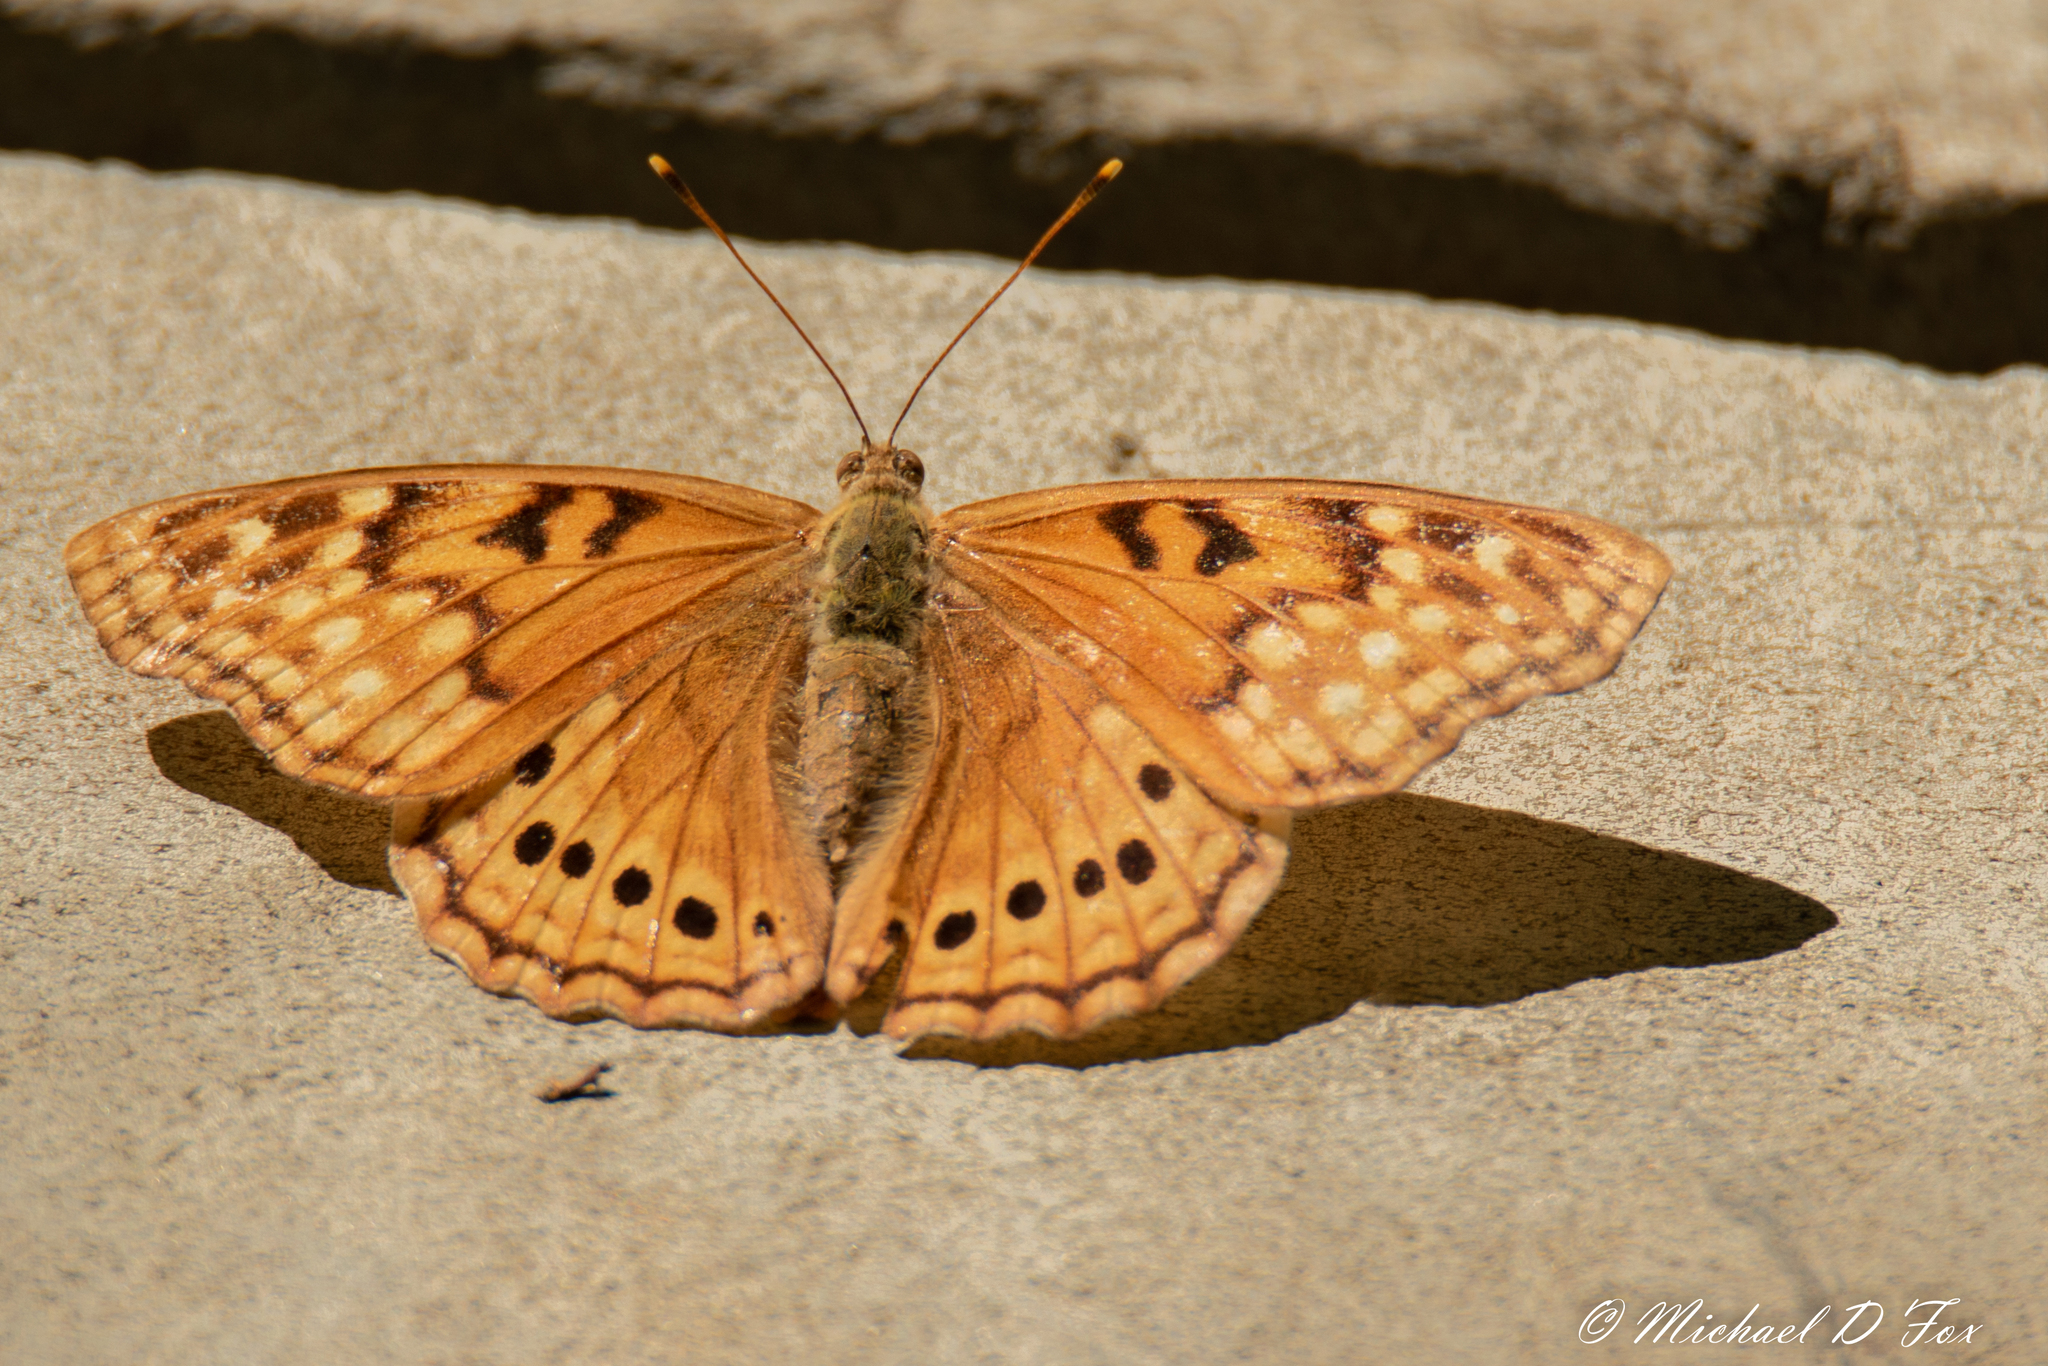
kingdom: Animalia
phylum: Arthropoda
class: Insecta
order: Lepidoptera
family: Nymphalidae
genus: Asterocampa
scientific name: Asterocampa clyton
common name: Tawny emperor
